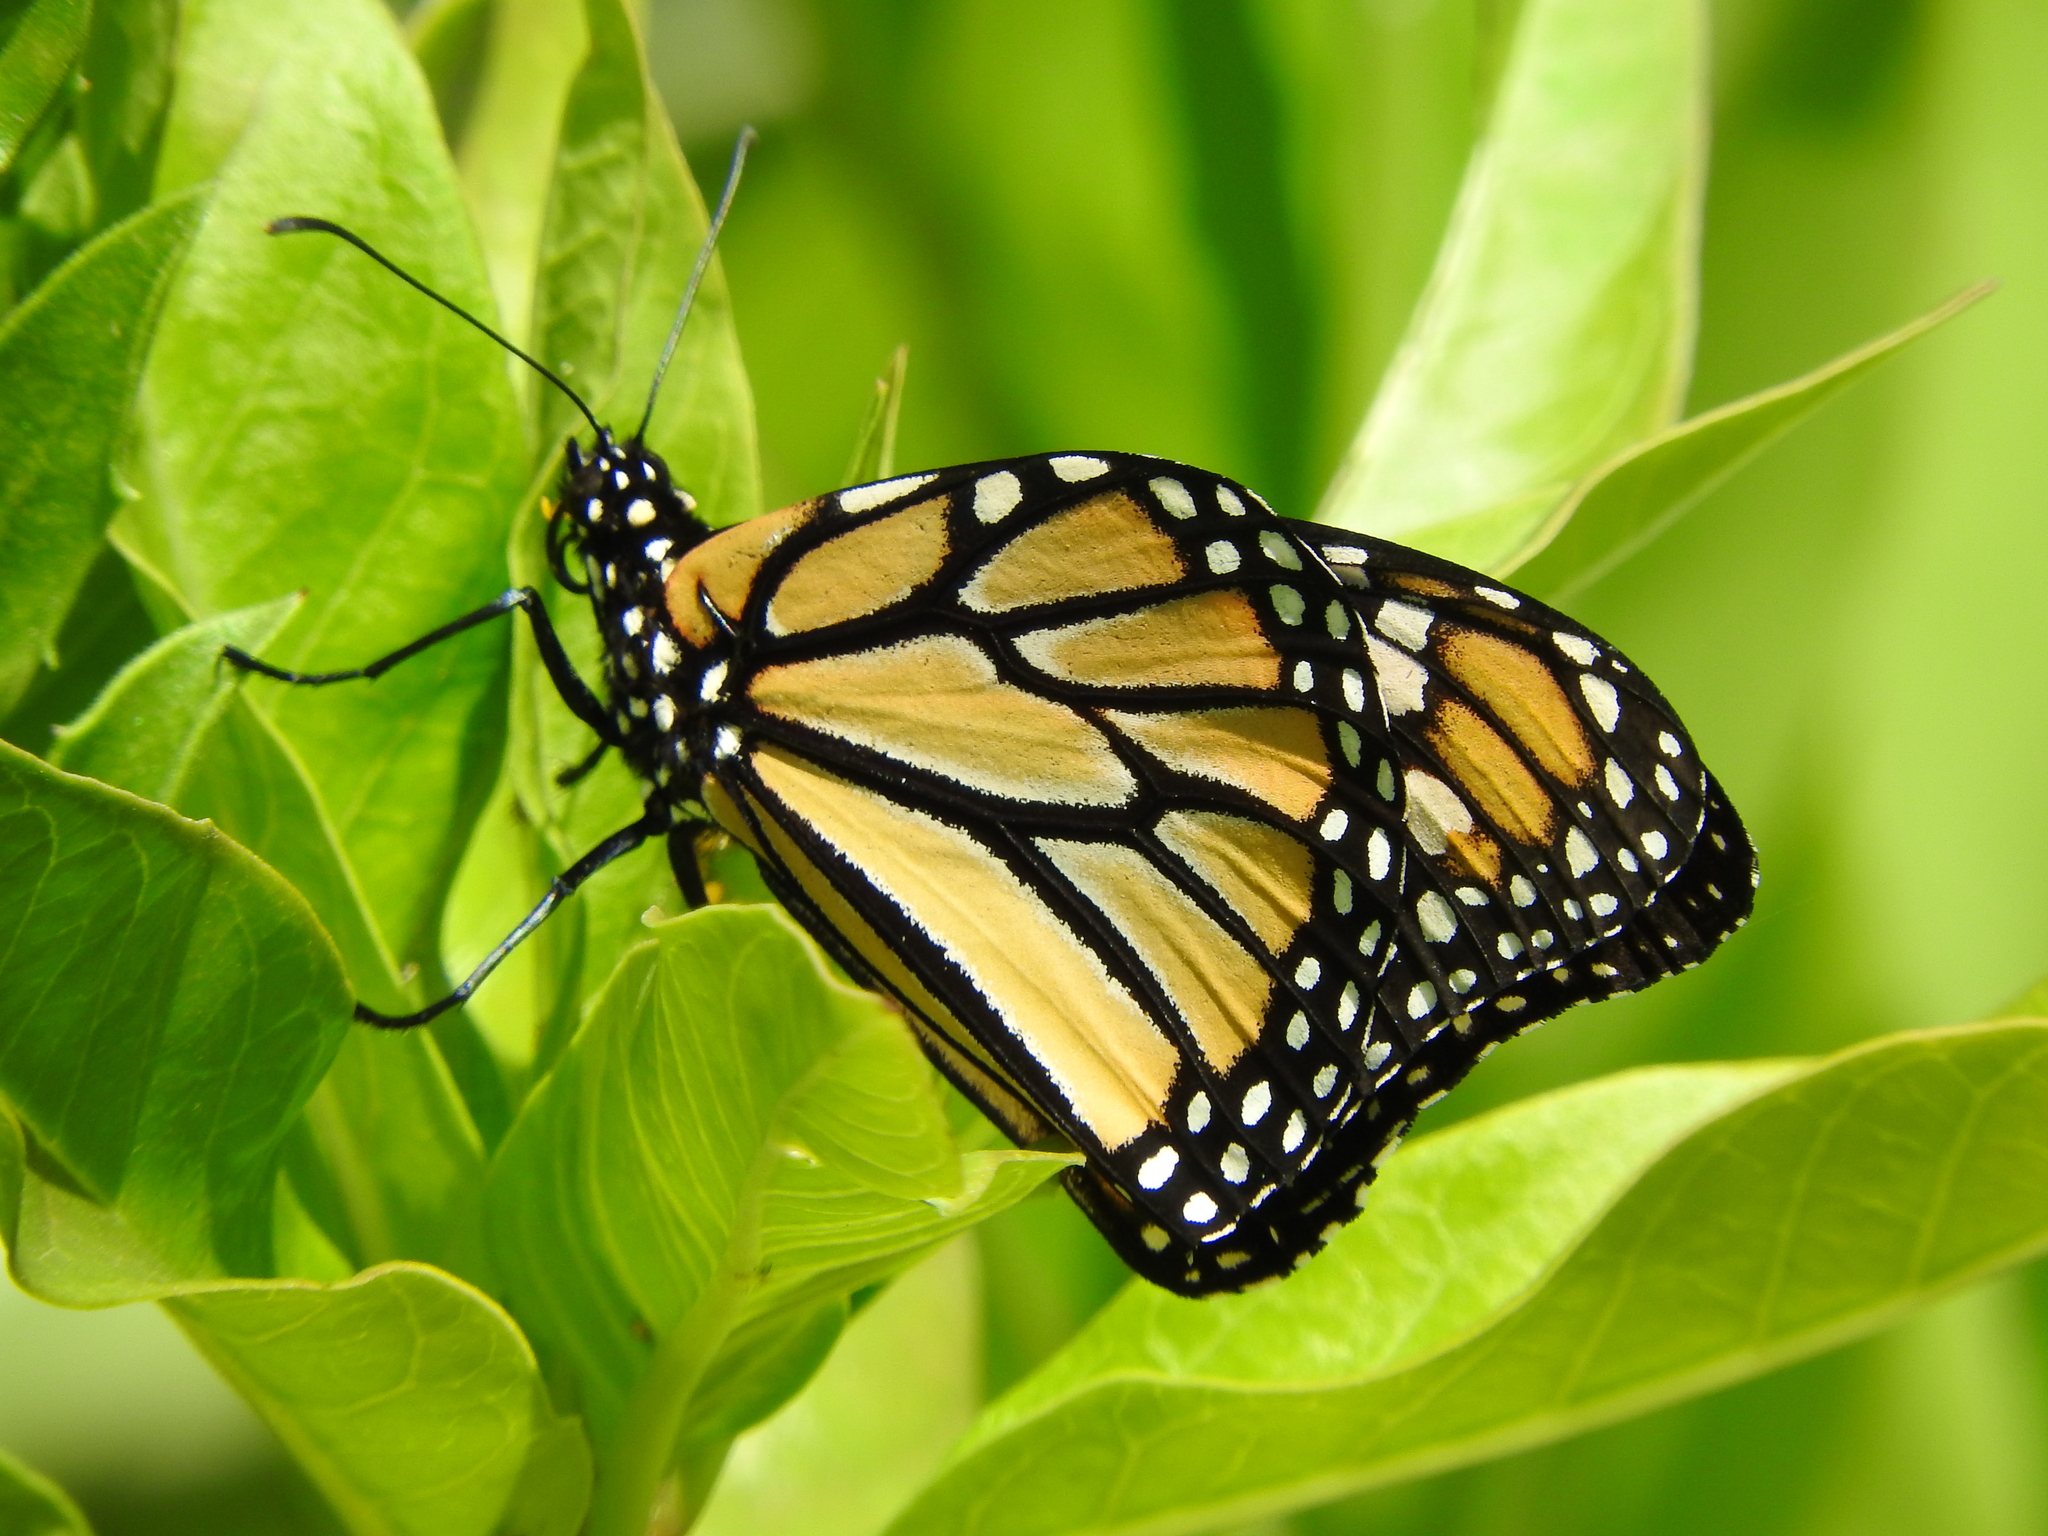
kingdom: Animalia
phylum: Arthropoda
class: Insecta
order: Lepidoptera
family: Nymphalidae
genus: Danaus
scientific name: Danaus plexippus
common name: Monarch
